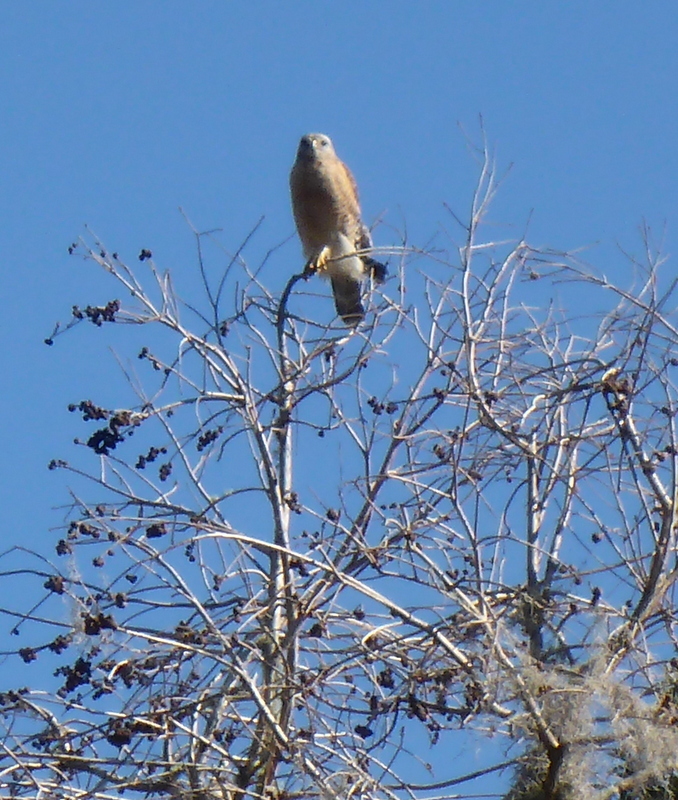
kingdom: Animalia
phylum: Chordata
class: Aves
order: Accipitriformes
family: Accipitridae
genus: Buteo
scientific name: Buteo lineatus
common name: Red-shouldered hawk
